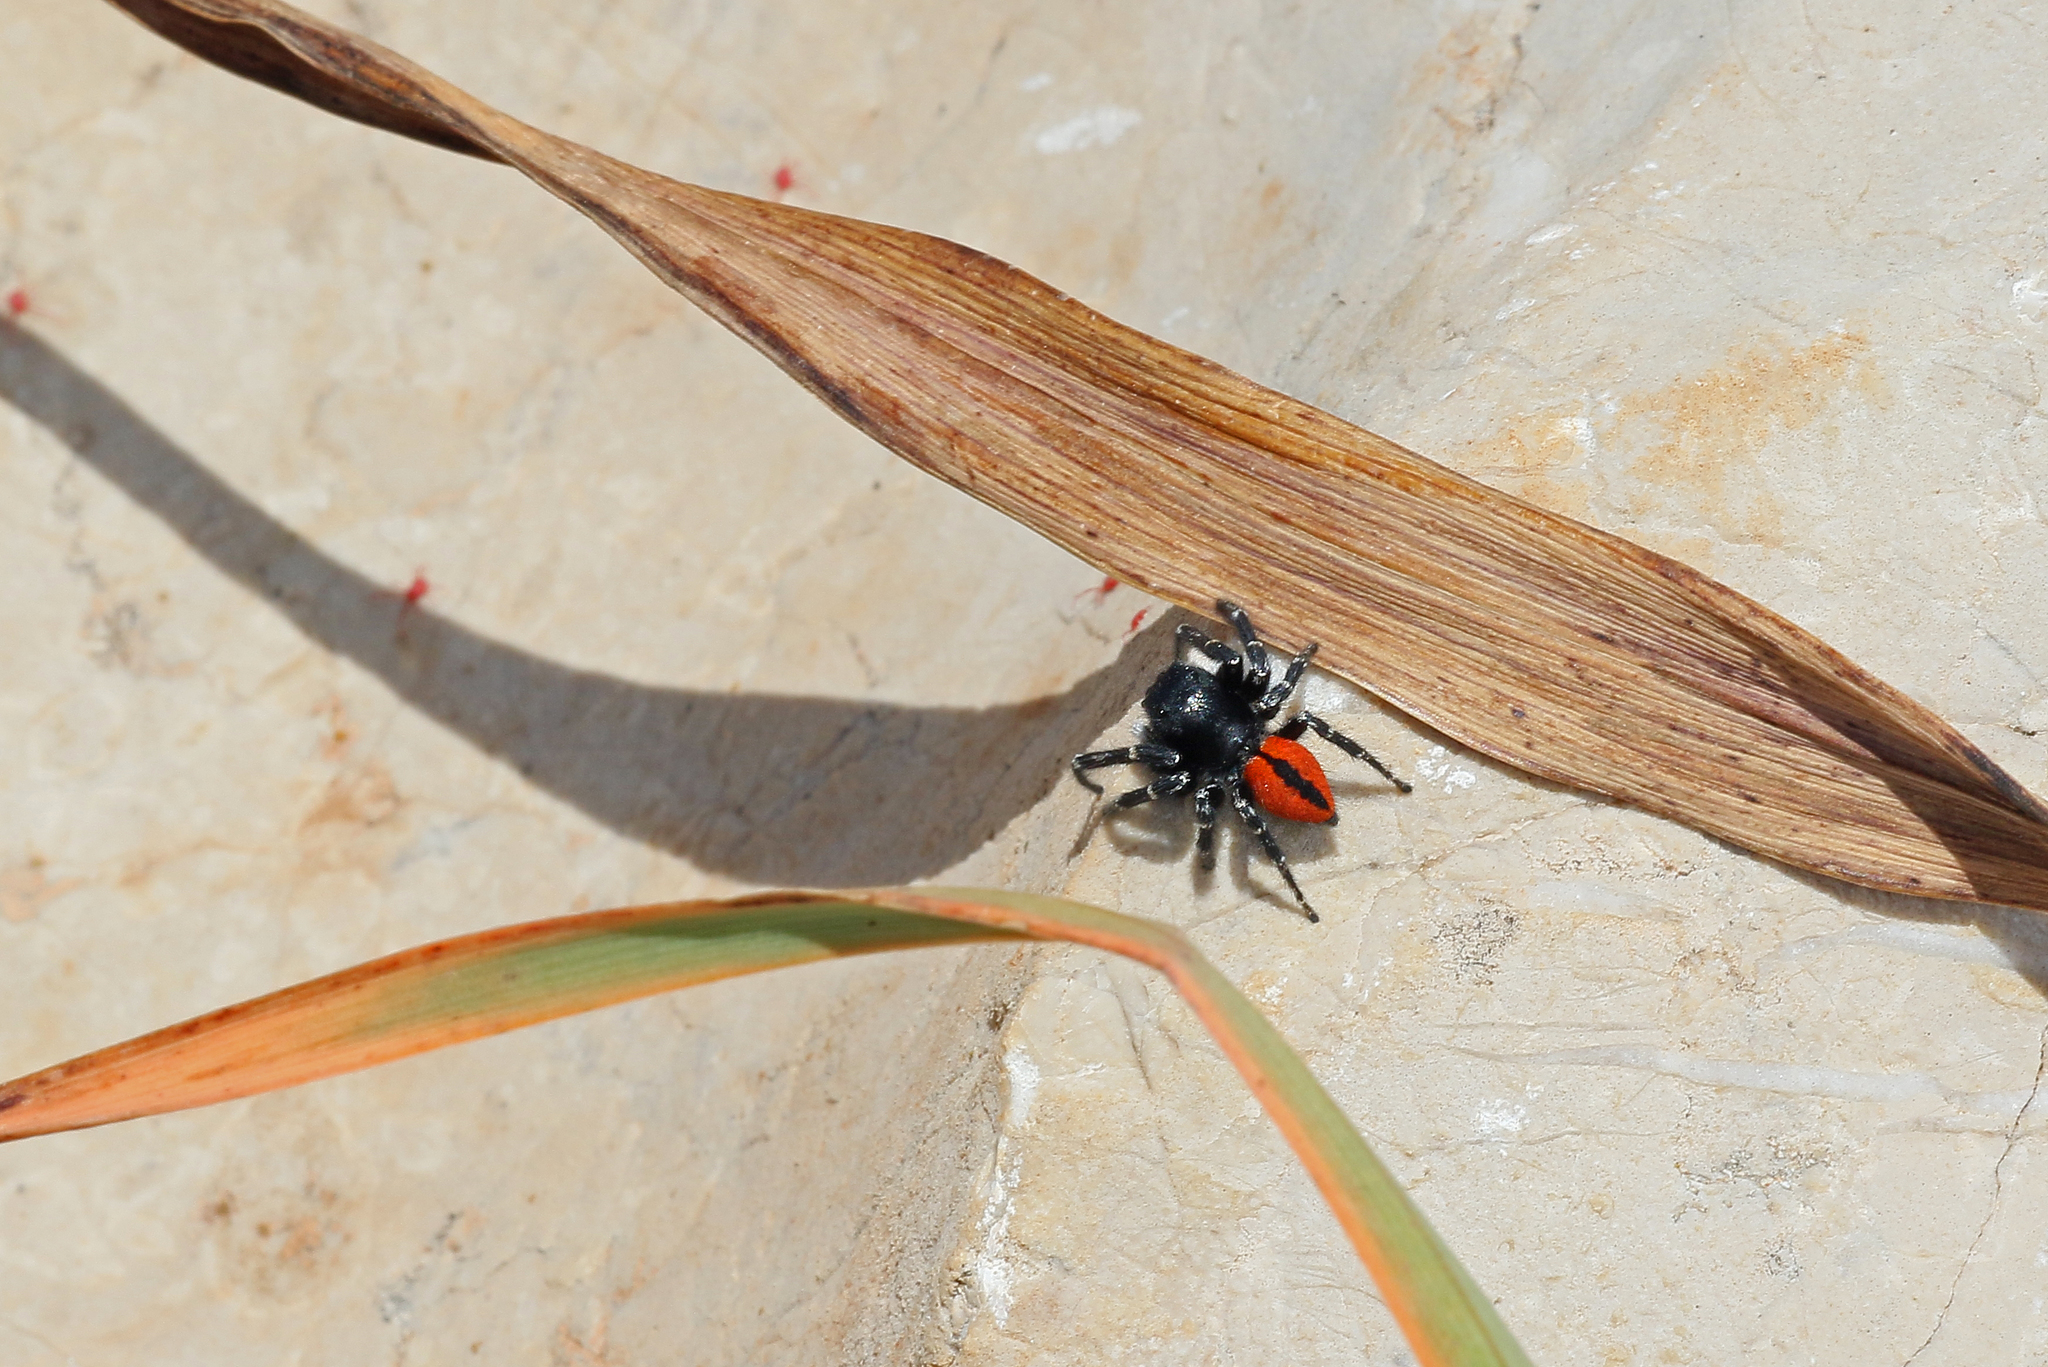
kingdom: Animalia
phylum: Arthropoda
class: Arachnida
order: Araneae
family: Salticidae
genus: Philaeus
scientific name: Philaeus chrysops
